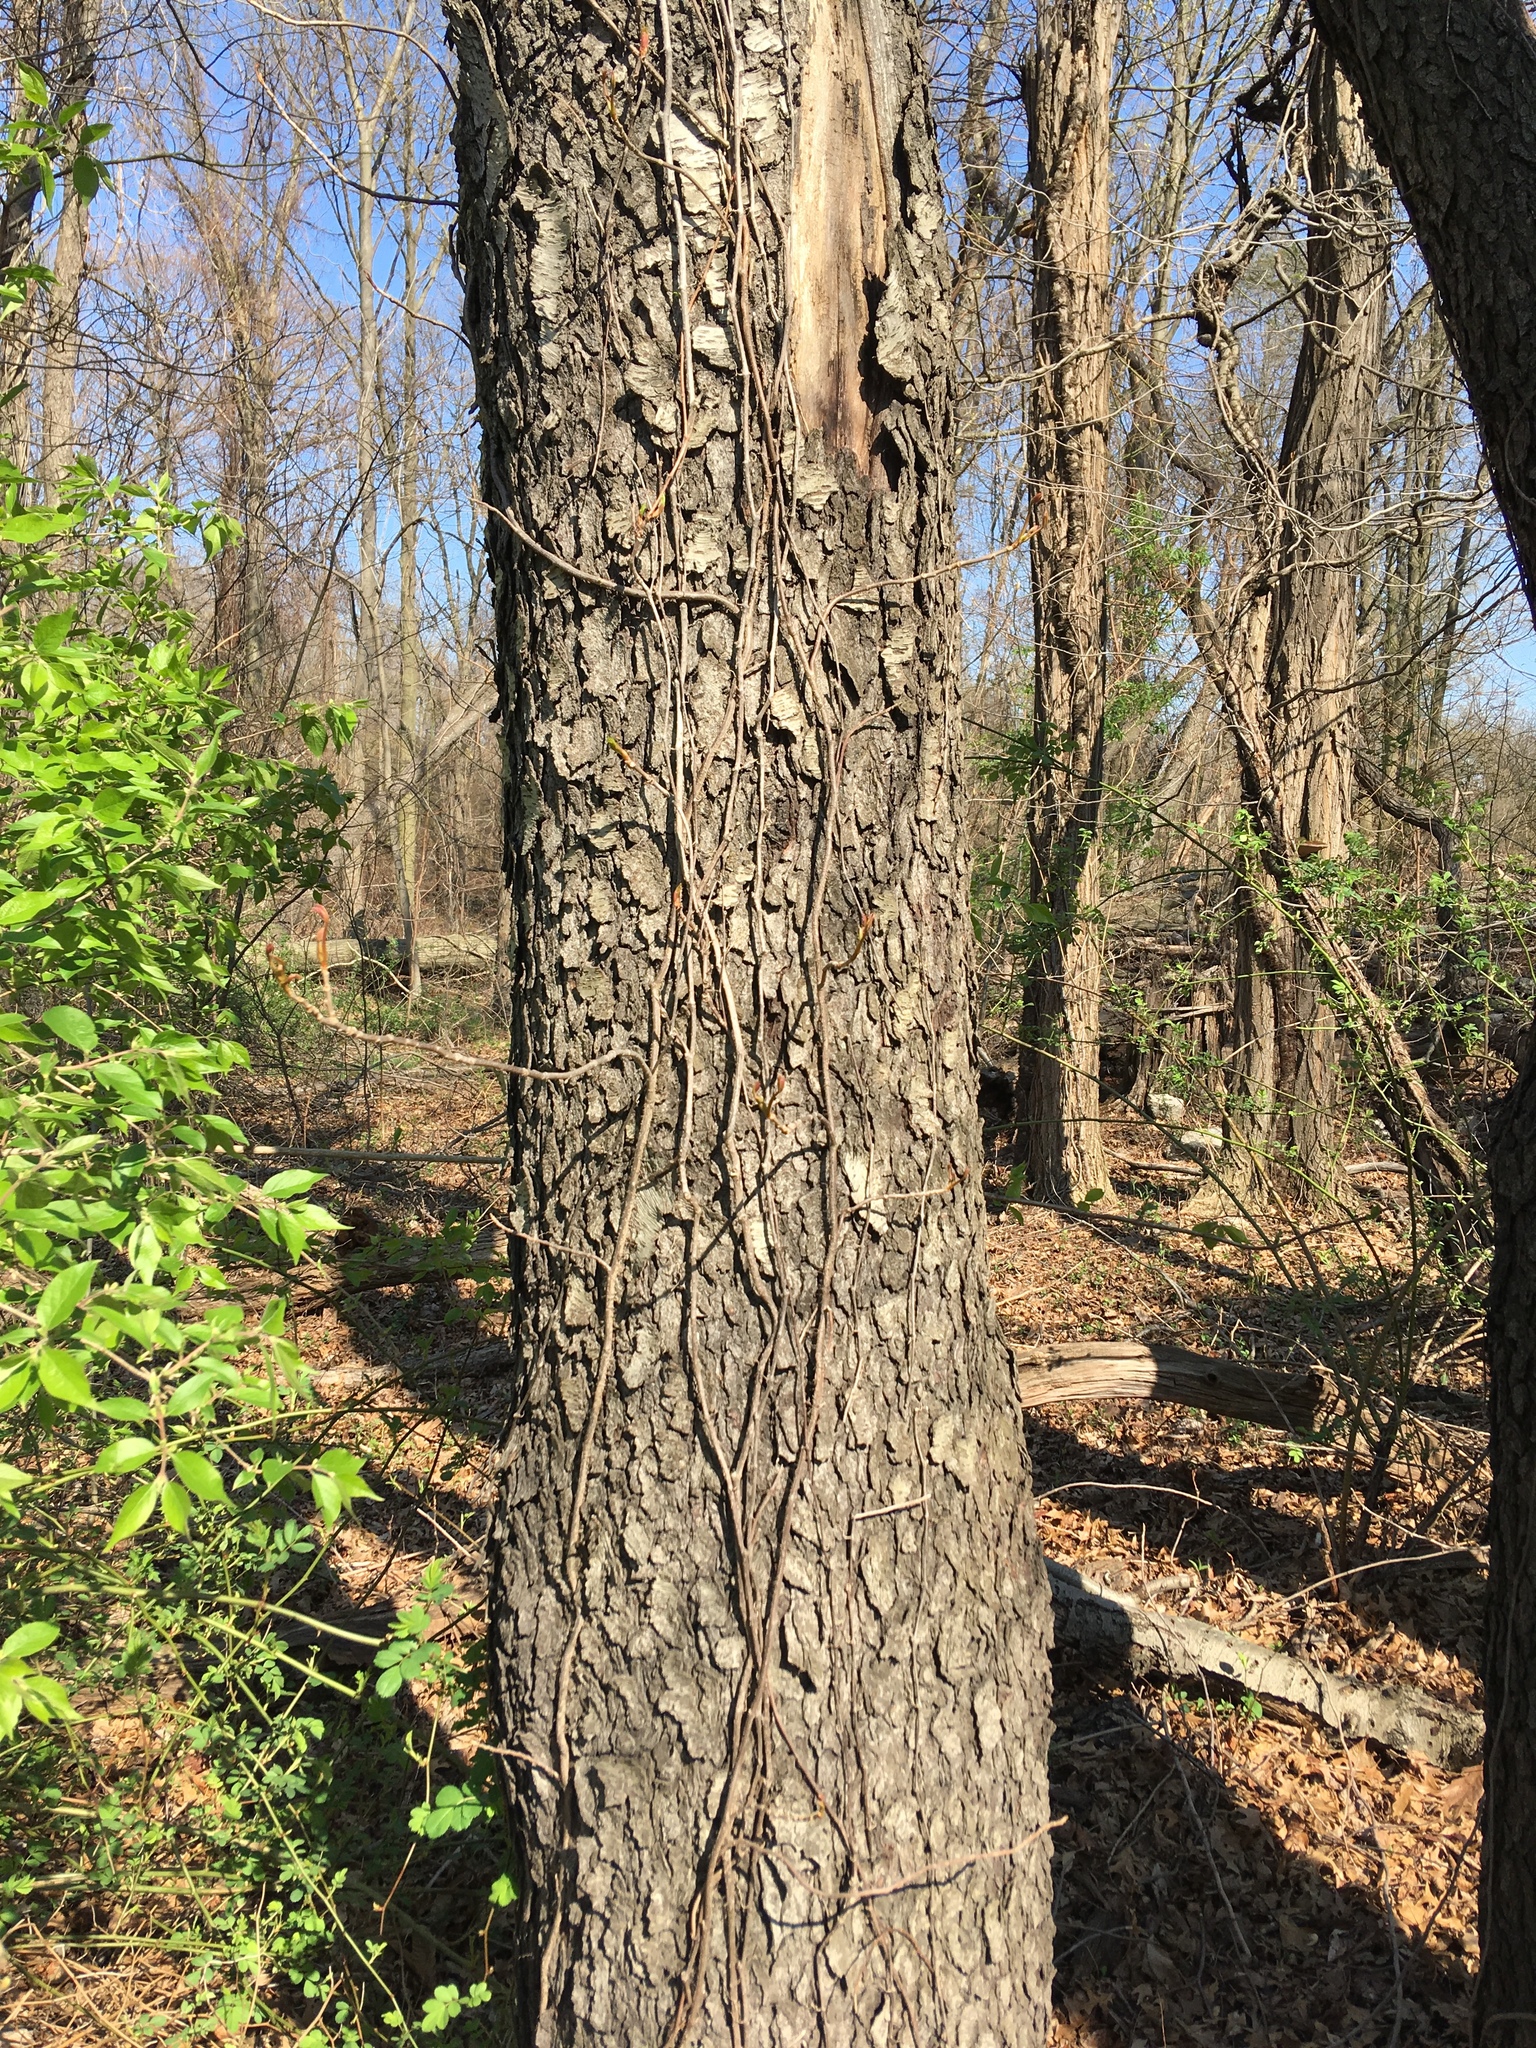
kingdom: Plantae
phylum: Tracheophyta
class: Magnoliopsida
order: Rosales
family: Rosaceae
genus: Prunus
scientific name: Prunus serotina
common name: Black cherry
